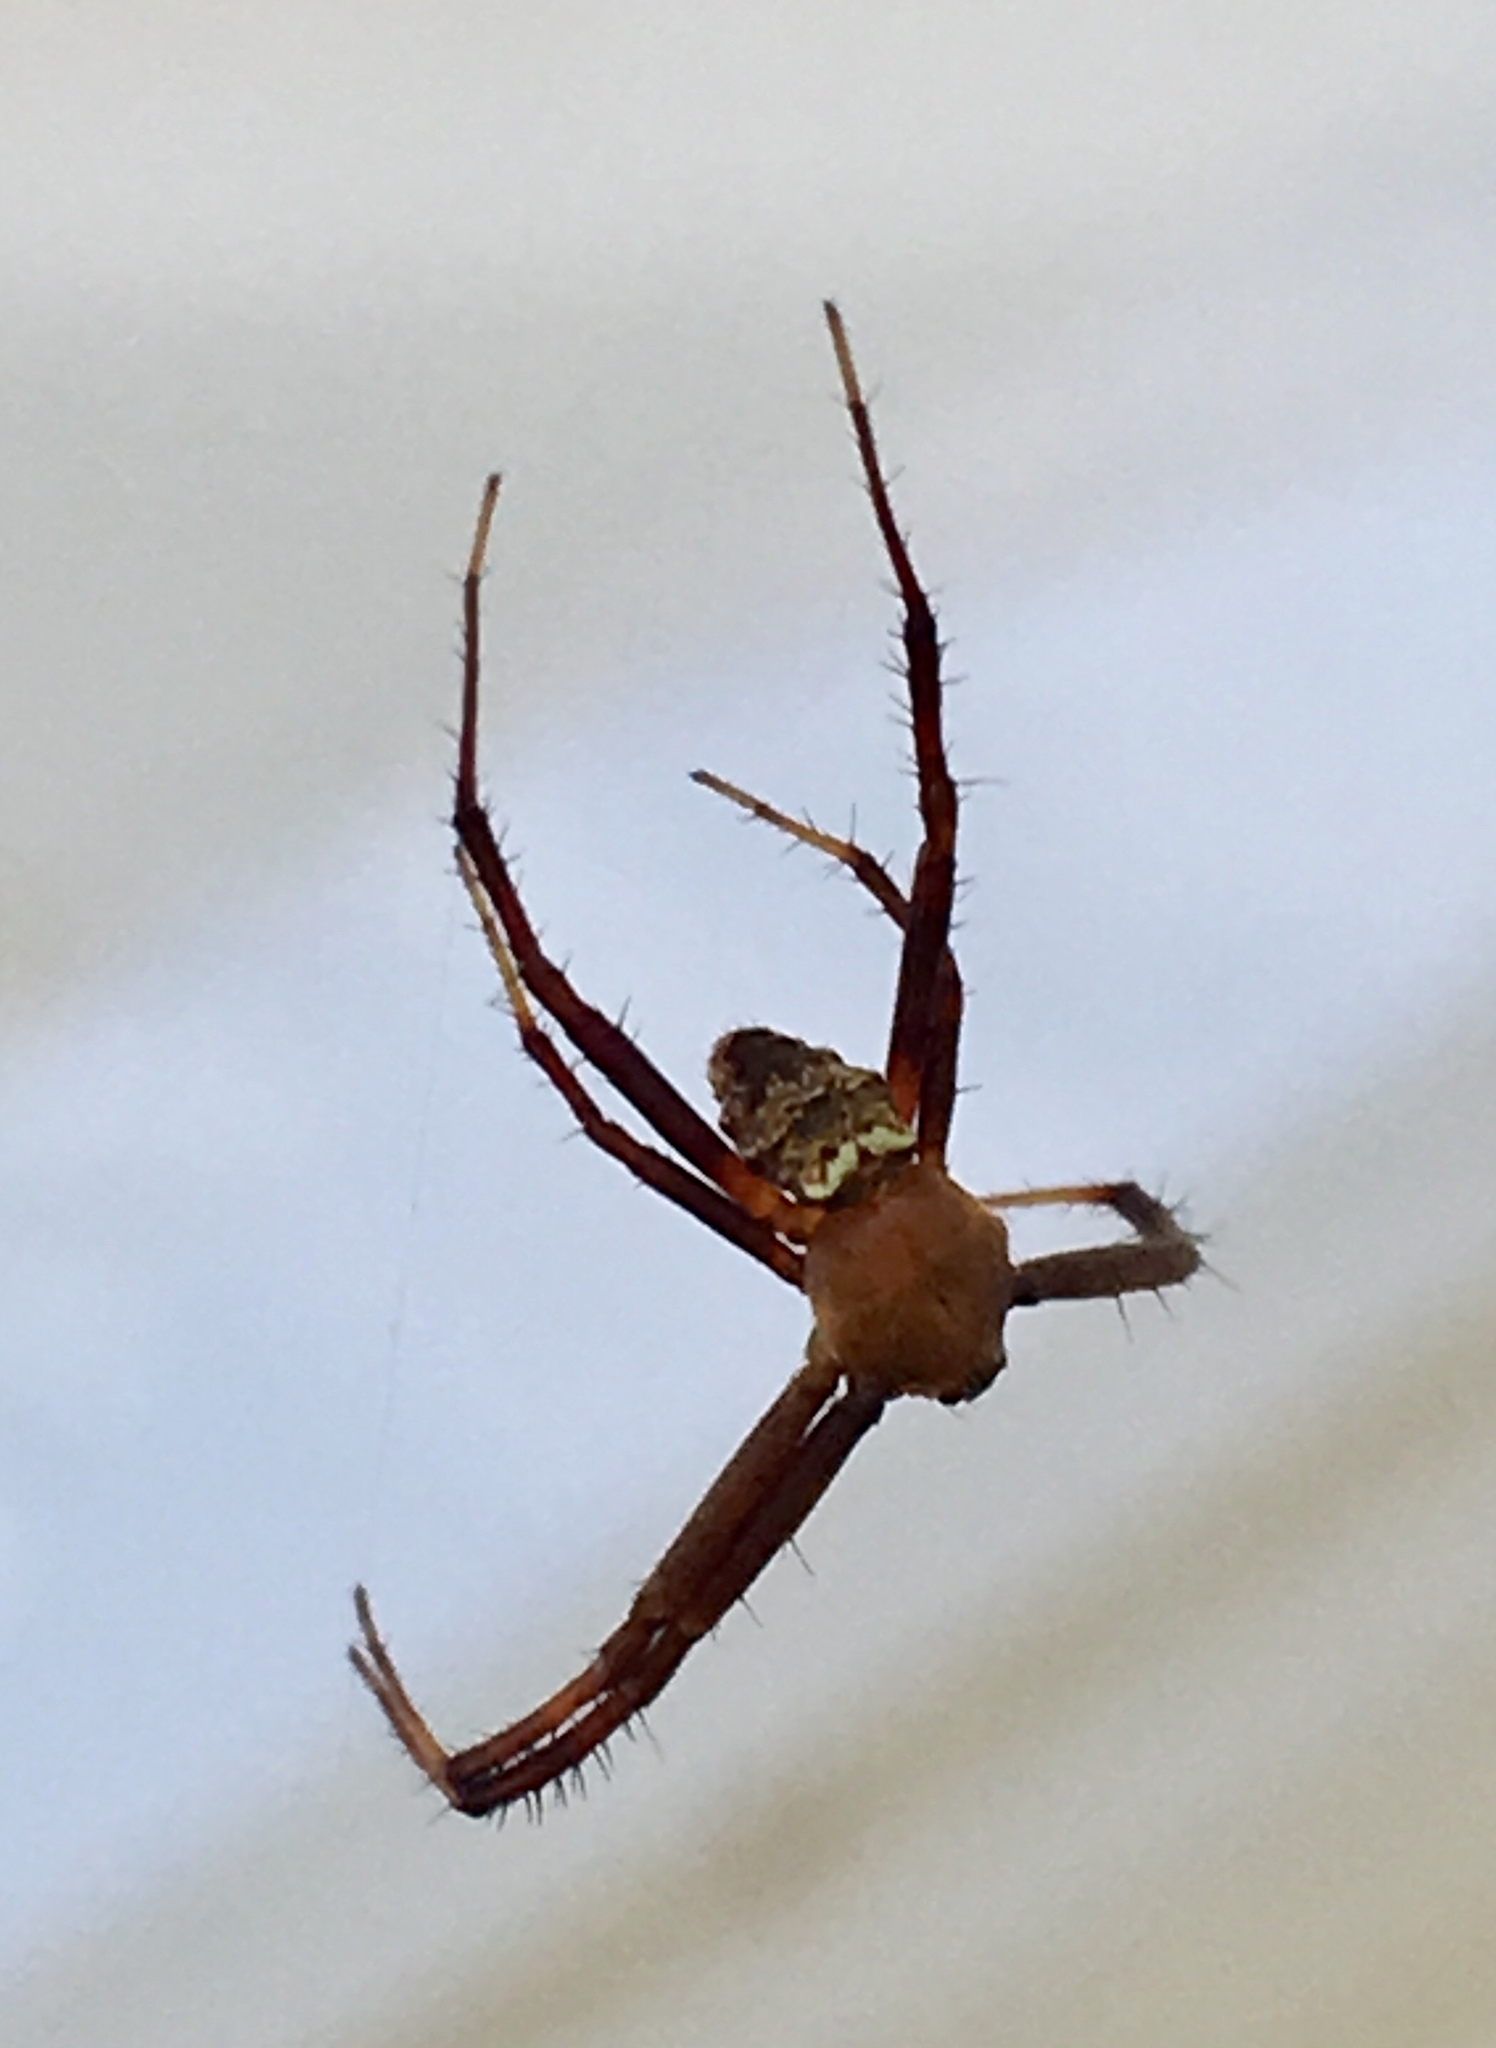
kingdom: Animalia
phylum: Arthropoda
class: Arachnida
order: Araneae
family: Araneidae
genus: Gea
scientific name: Gea heptagon
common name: Orb weavers
